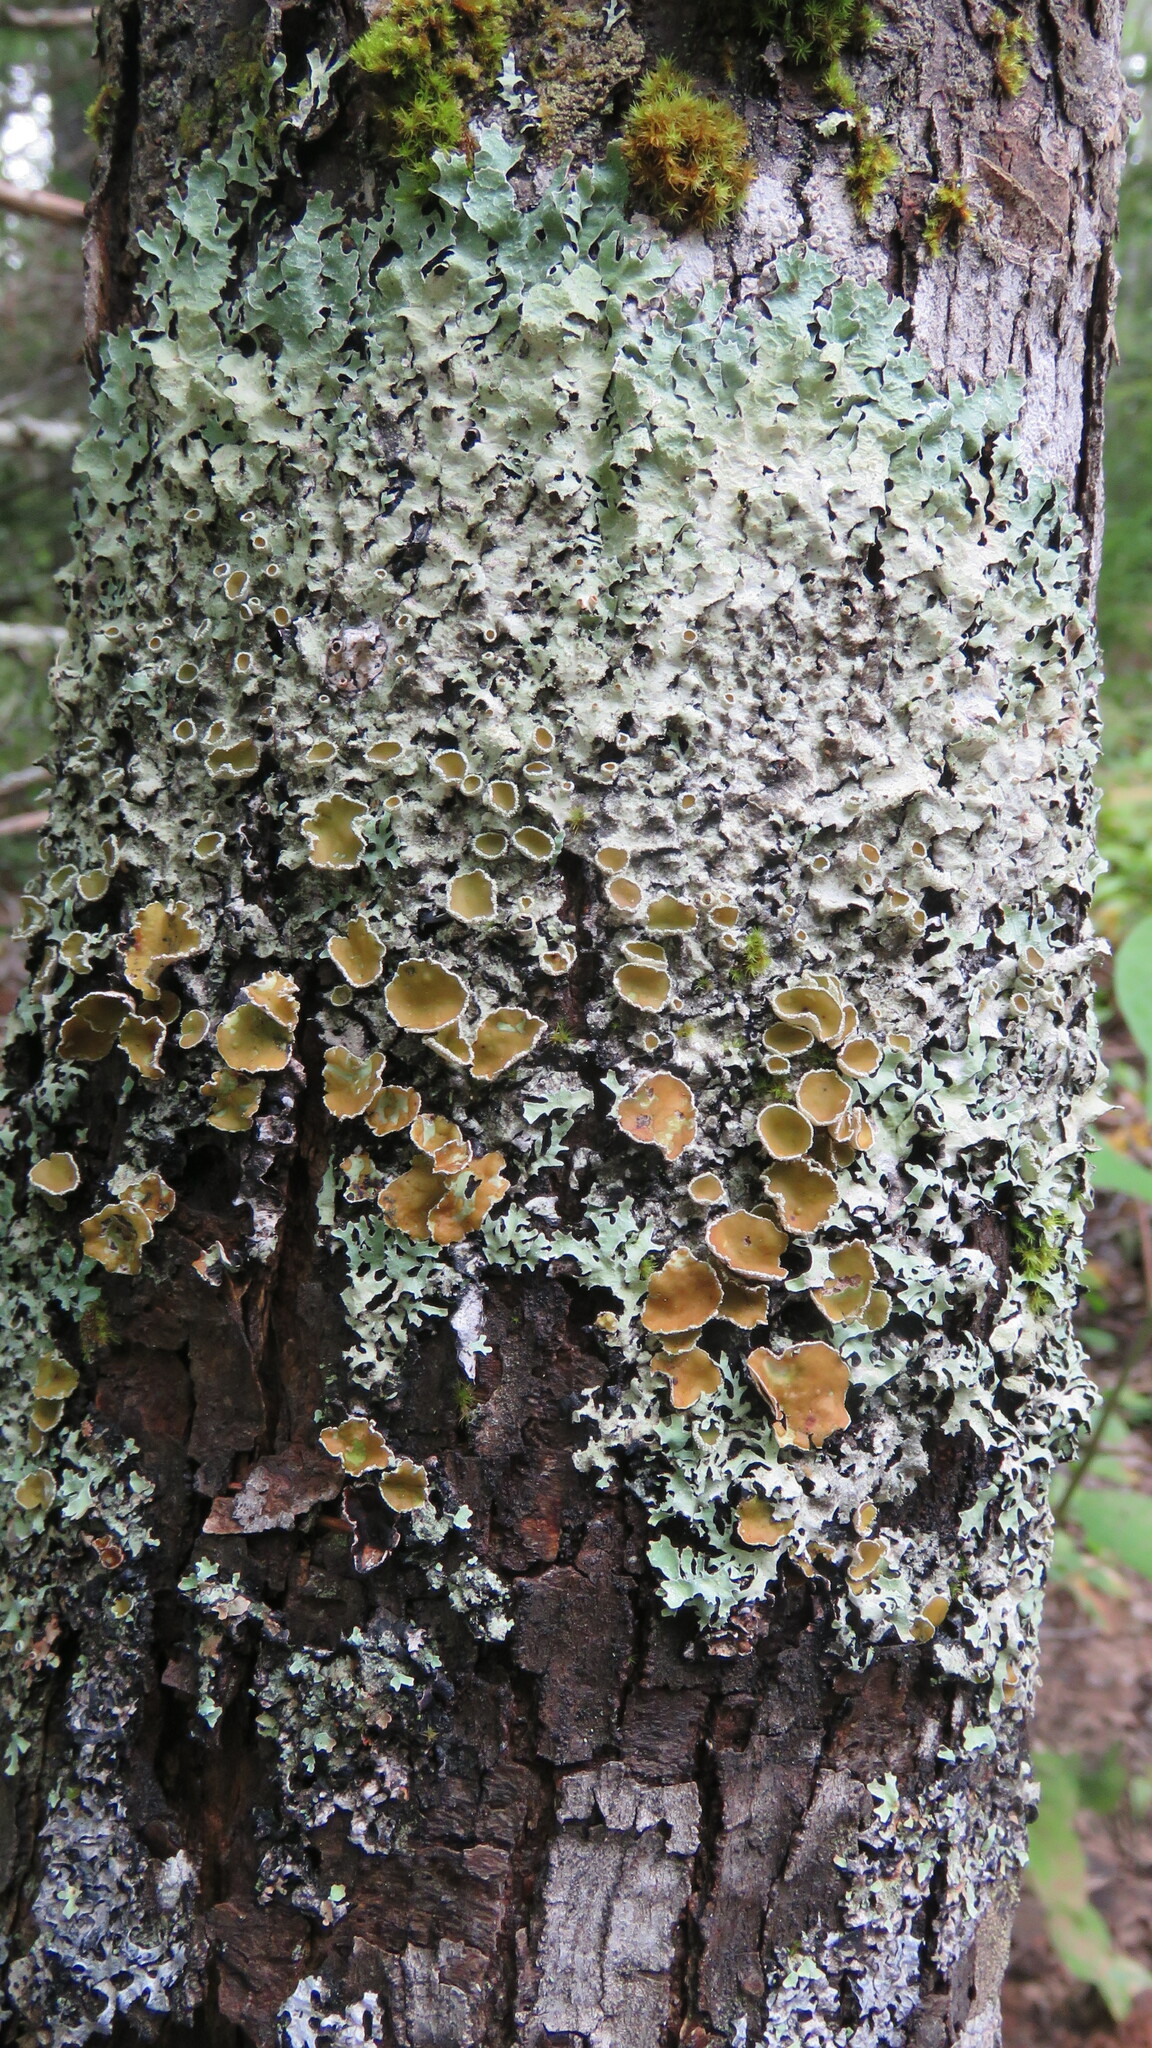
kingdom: Fungi
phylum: Ascomycota
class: Lecanoromycetes
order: Lecanorales
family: Parmeliaceae
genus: Parmelia
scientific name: Parmelia squarrosa
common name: Bottle brush shield lichen
